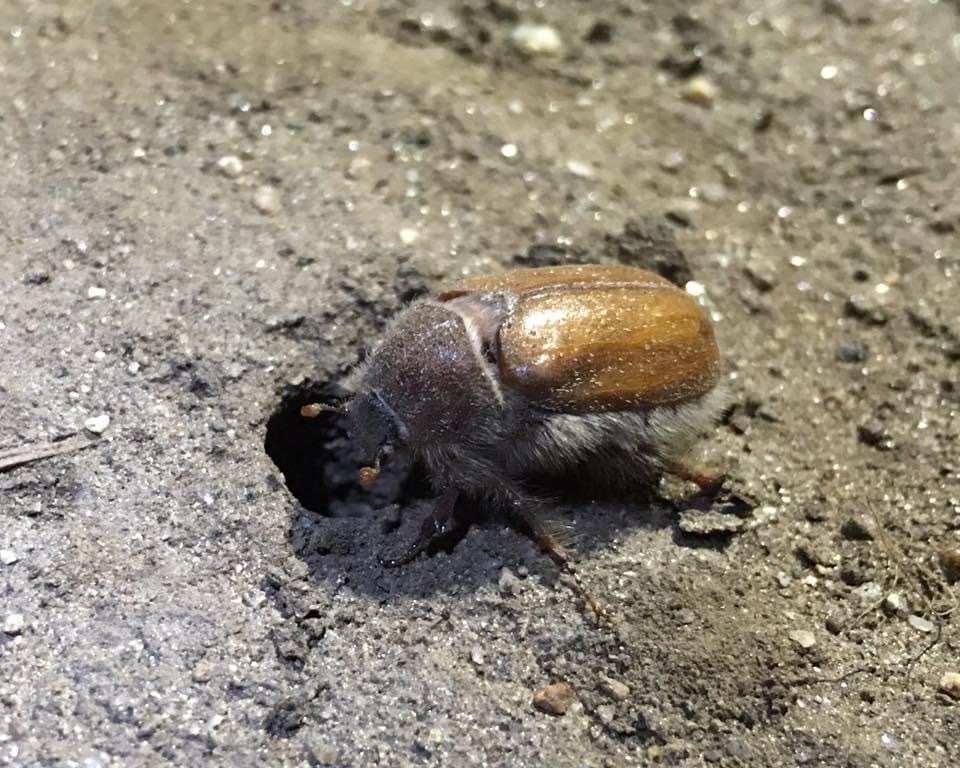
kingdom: Animalia
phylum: Arthropoda
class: Insecta
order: Coleoptera
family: Scarabaeidae
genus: Dinacoma
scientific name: Dinacoma caseyi
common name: Casey's june beetle
